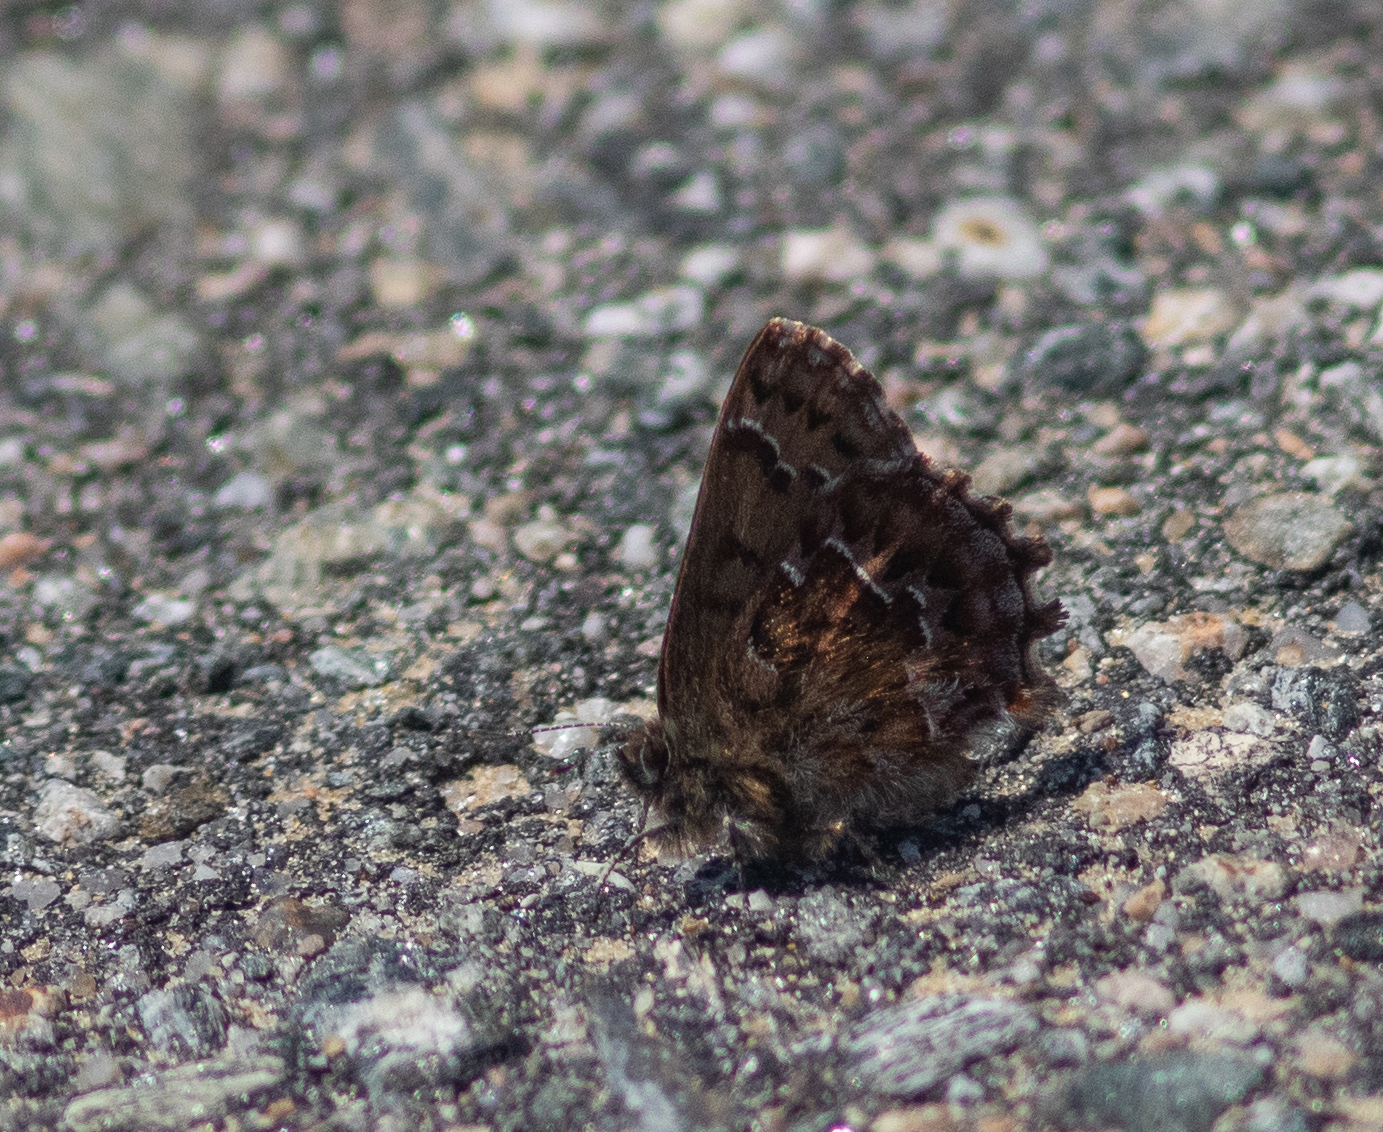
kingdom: Animalia
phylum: Arthropoda
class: Insecta
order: Lepidoptera
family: Lycaenidae
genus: Incisalia
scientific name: Incisalia niphon
